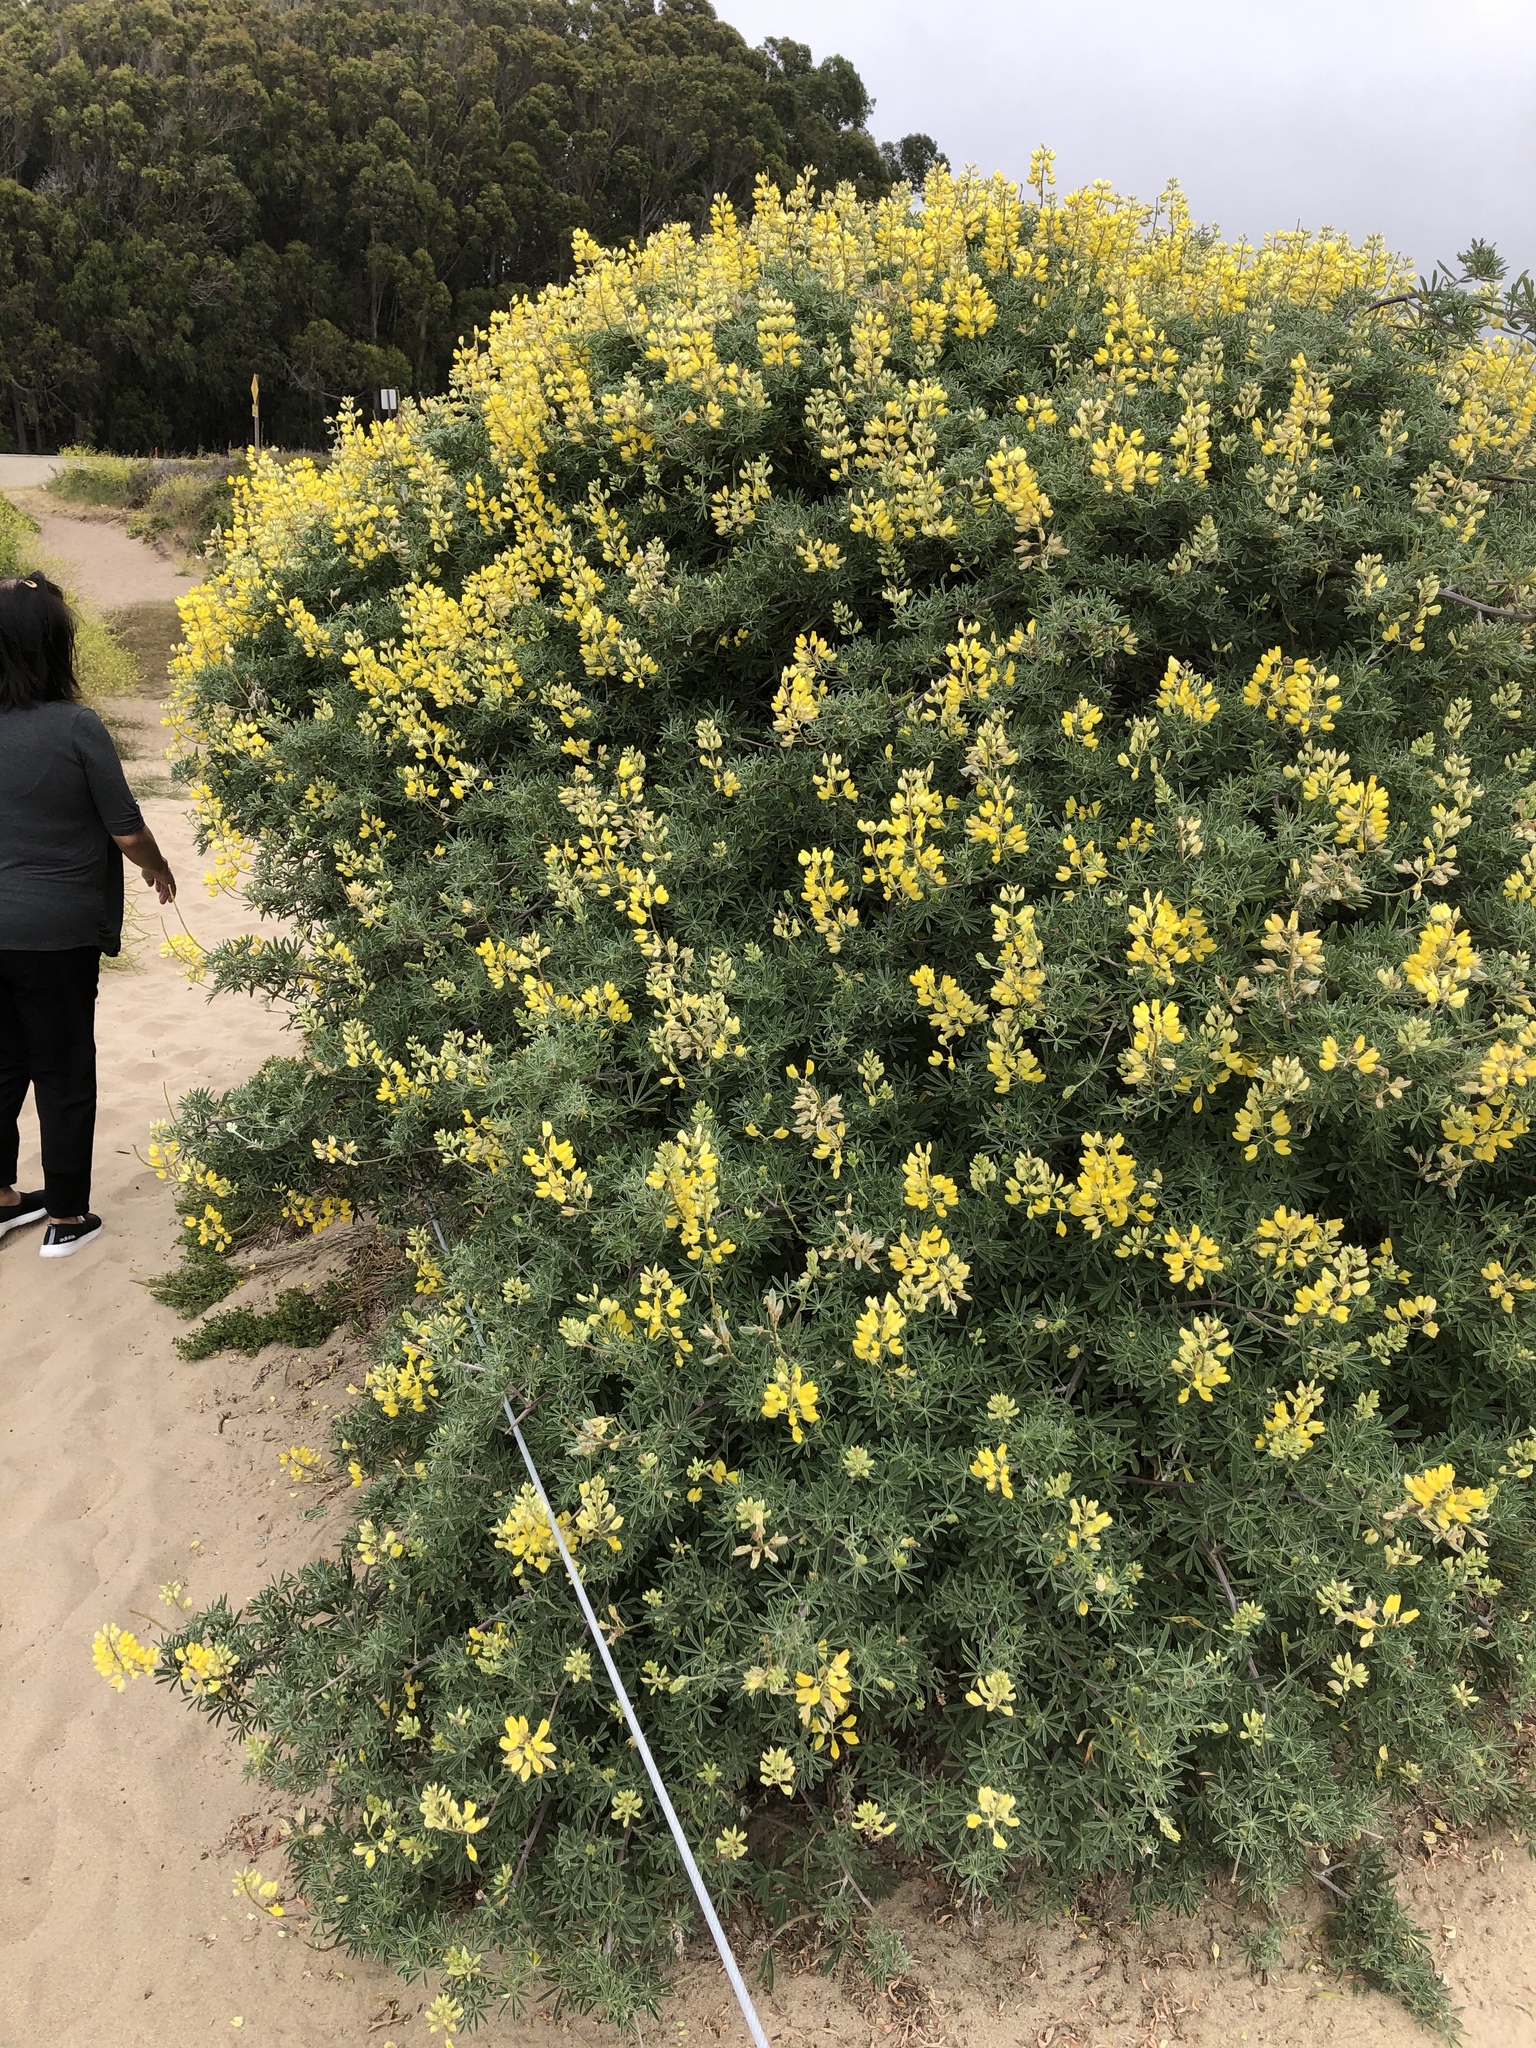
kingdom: Plantae
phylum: Tracheophyta
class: Magnoliopsida
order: Fabales
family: Fabaceae
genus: Lupinus
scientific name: Lupinus arboreus
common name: Yellow bush lupine
